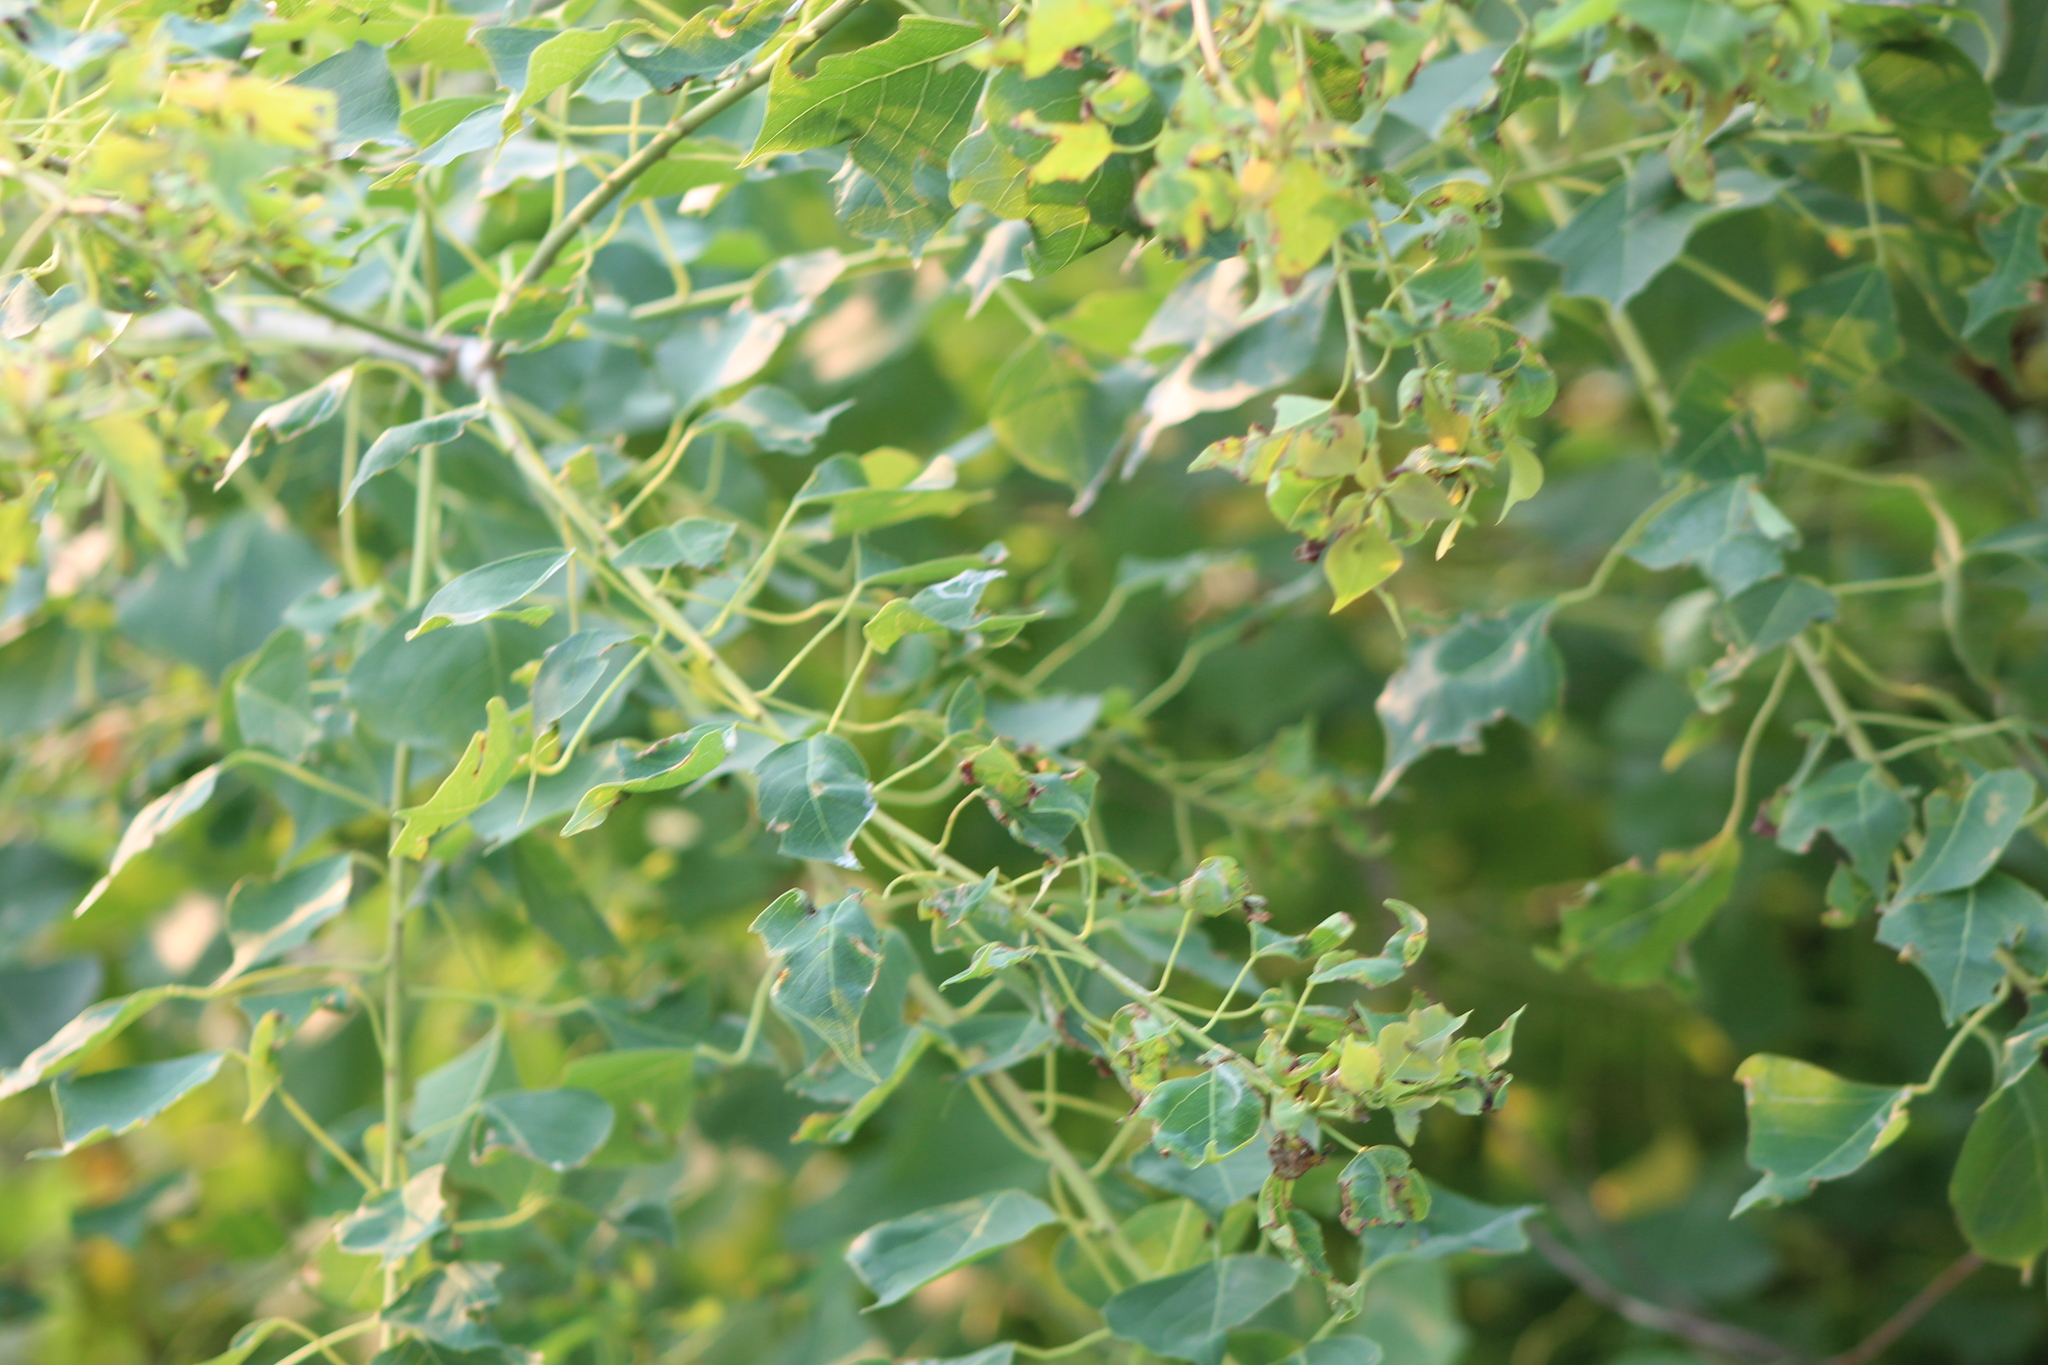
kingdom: Plantae
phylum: Tracheophyta
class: Magnoliopsida
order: Malpighiales
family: Euphorbiaceae
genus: Triadica
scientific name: Triadica sebifera
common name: Chinese tallow
